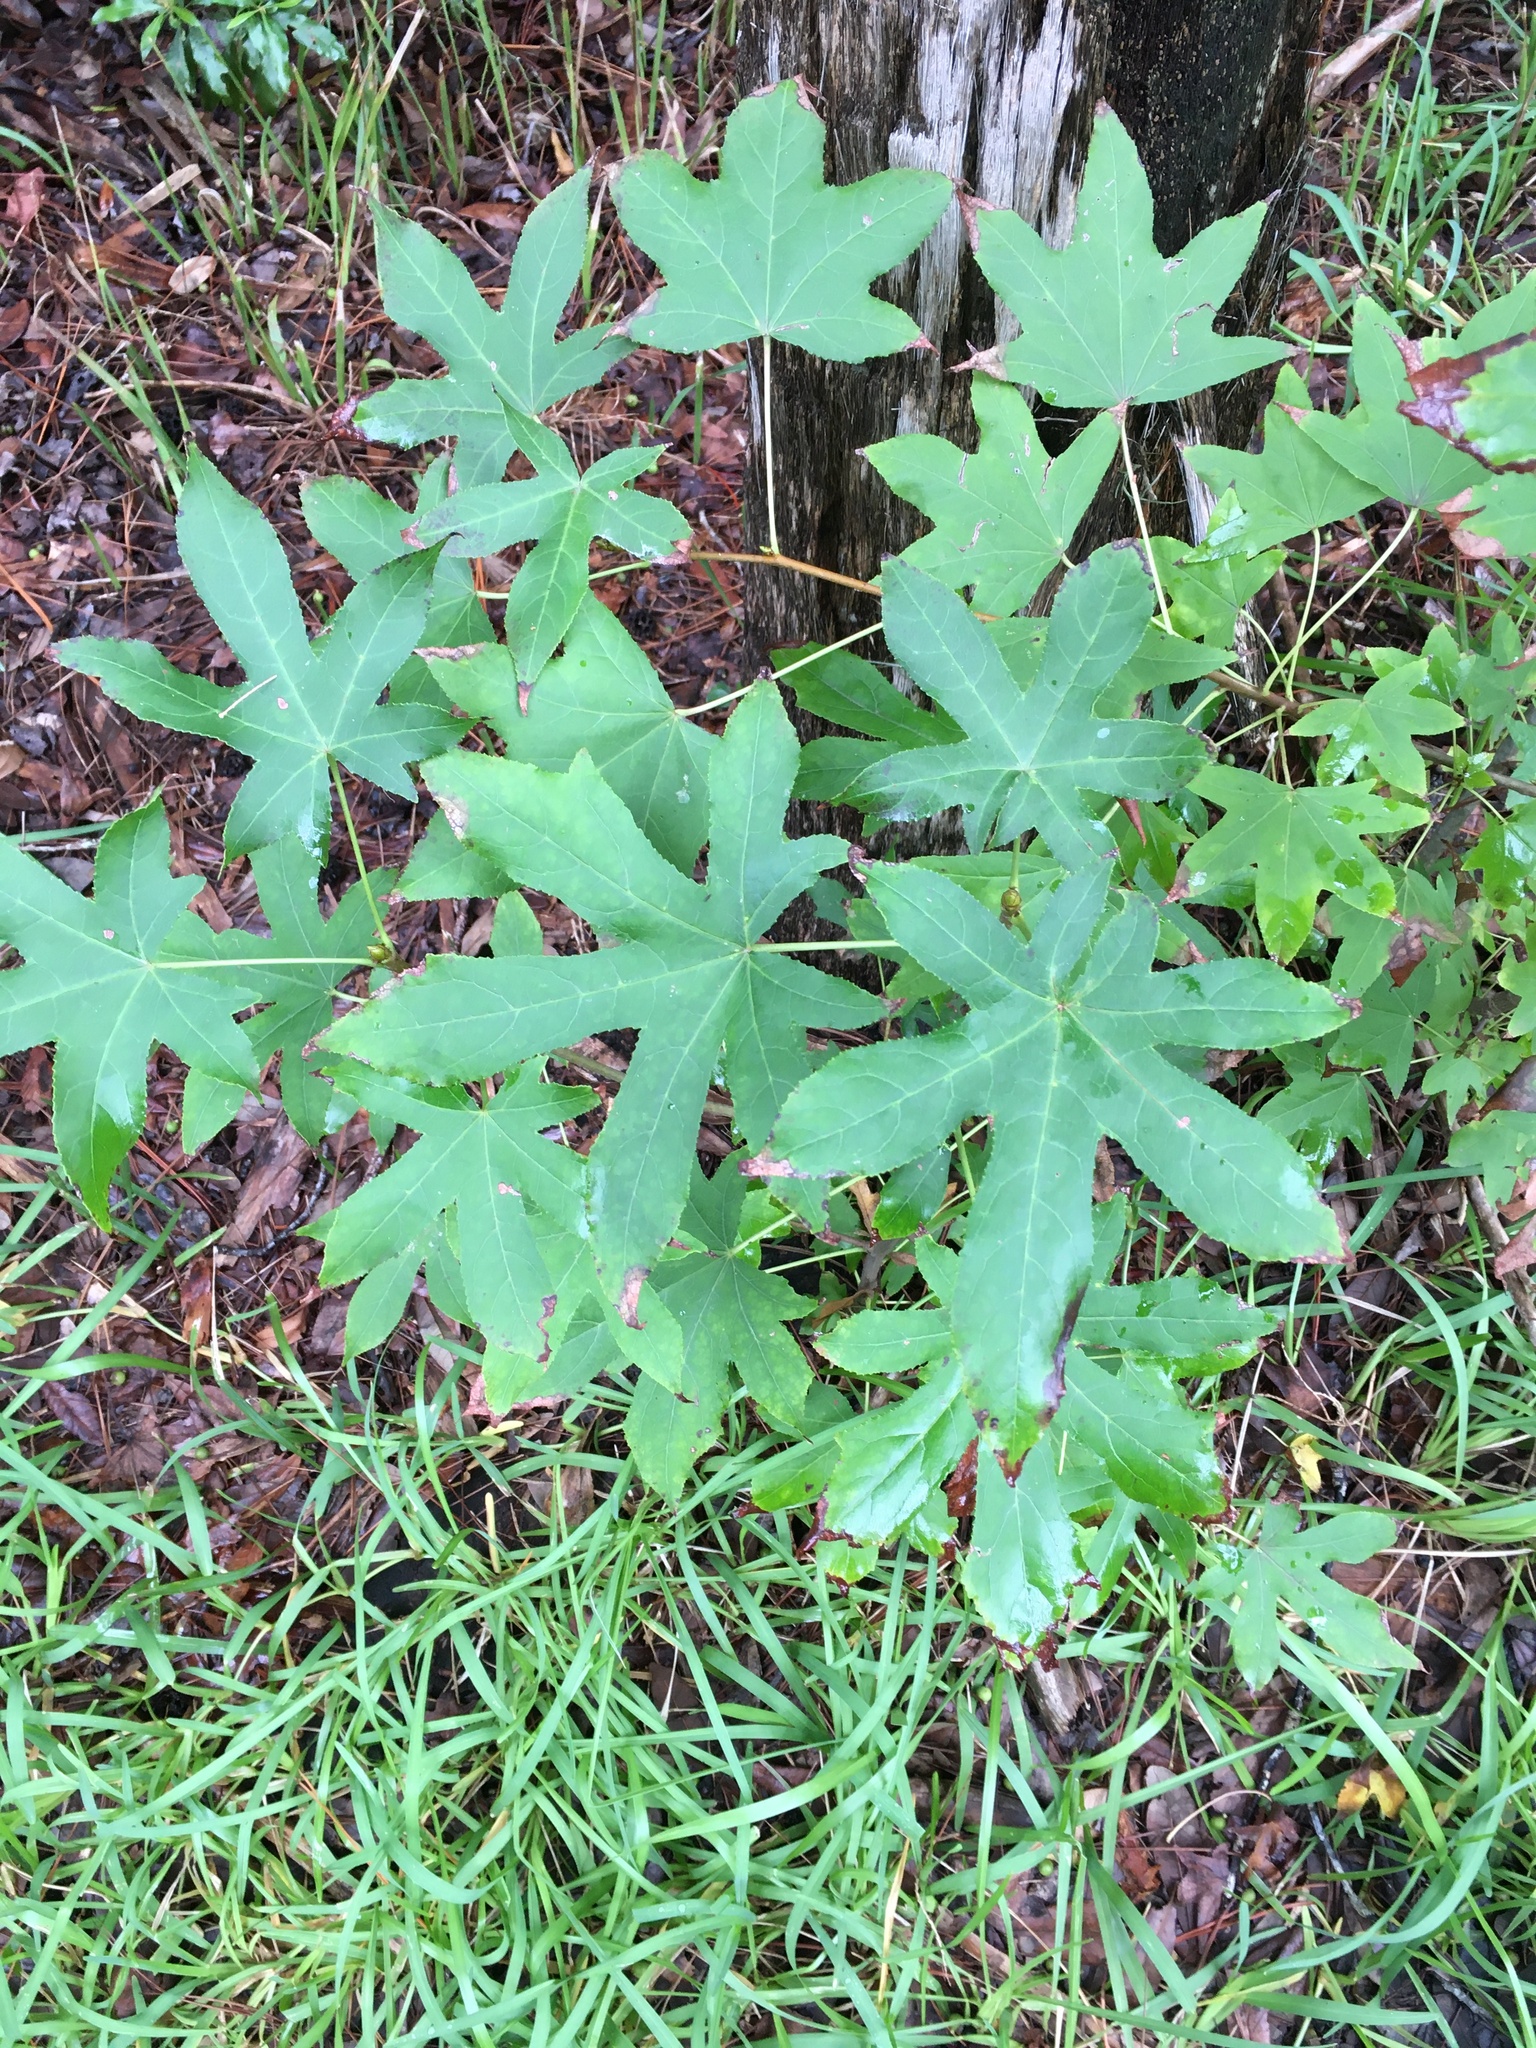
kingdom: Plantae
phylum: Tracheophyta
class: Magnoliopsida
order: Saxifragales
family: Altingiaceae
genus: Liquidambar
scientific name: Liquidambar styraciflua
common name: Sweet gum
